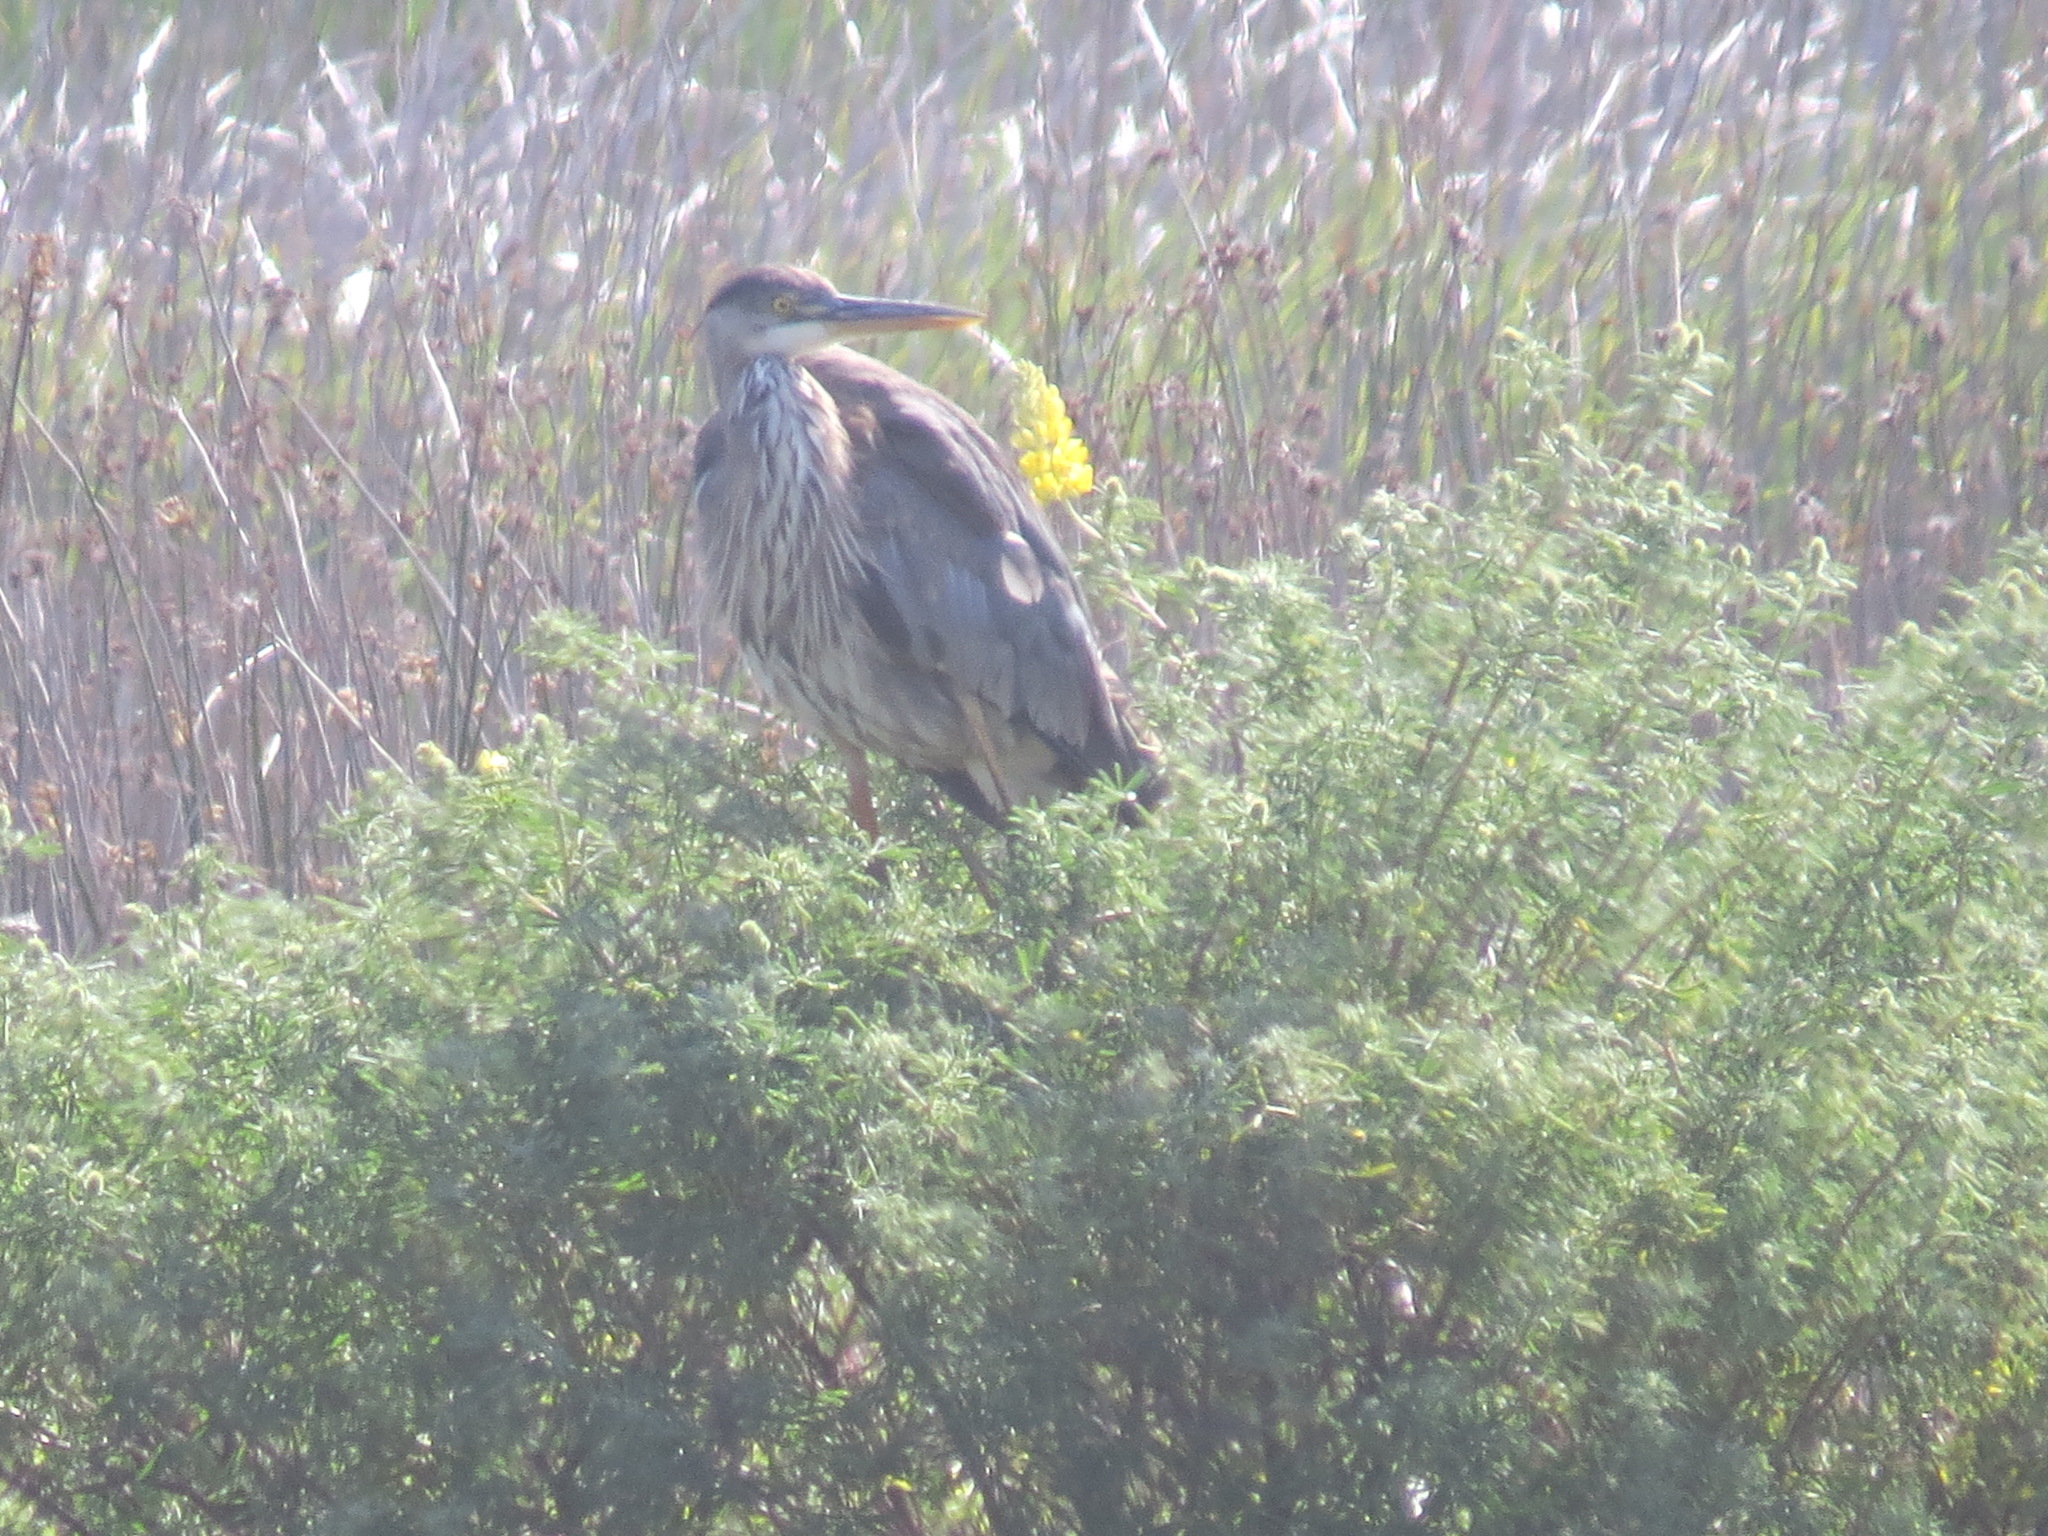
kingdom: Animalia
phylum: Chordata
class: Aves
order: Pelecaniformes
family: Ardeidae
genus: Ardea
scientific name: Ardea herodias
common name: Great blue heron
